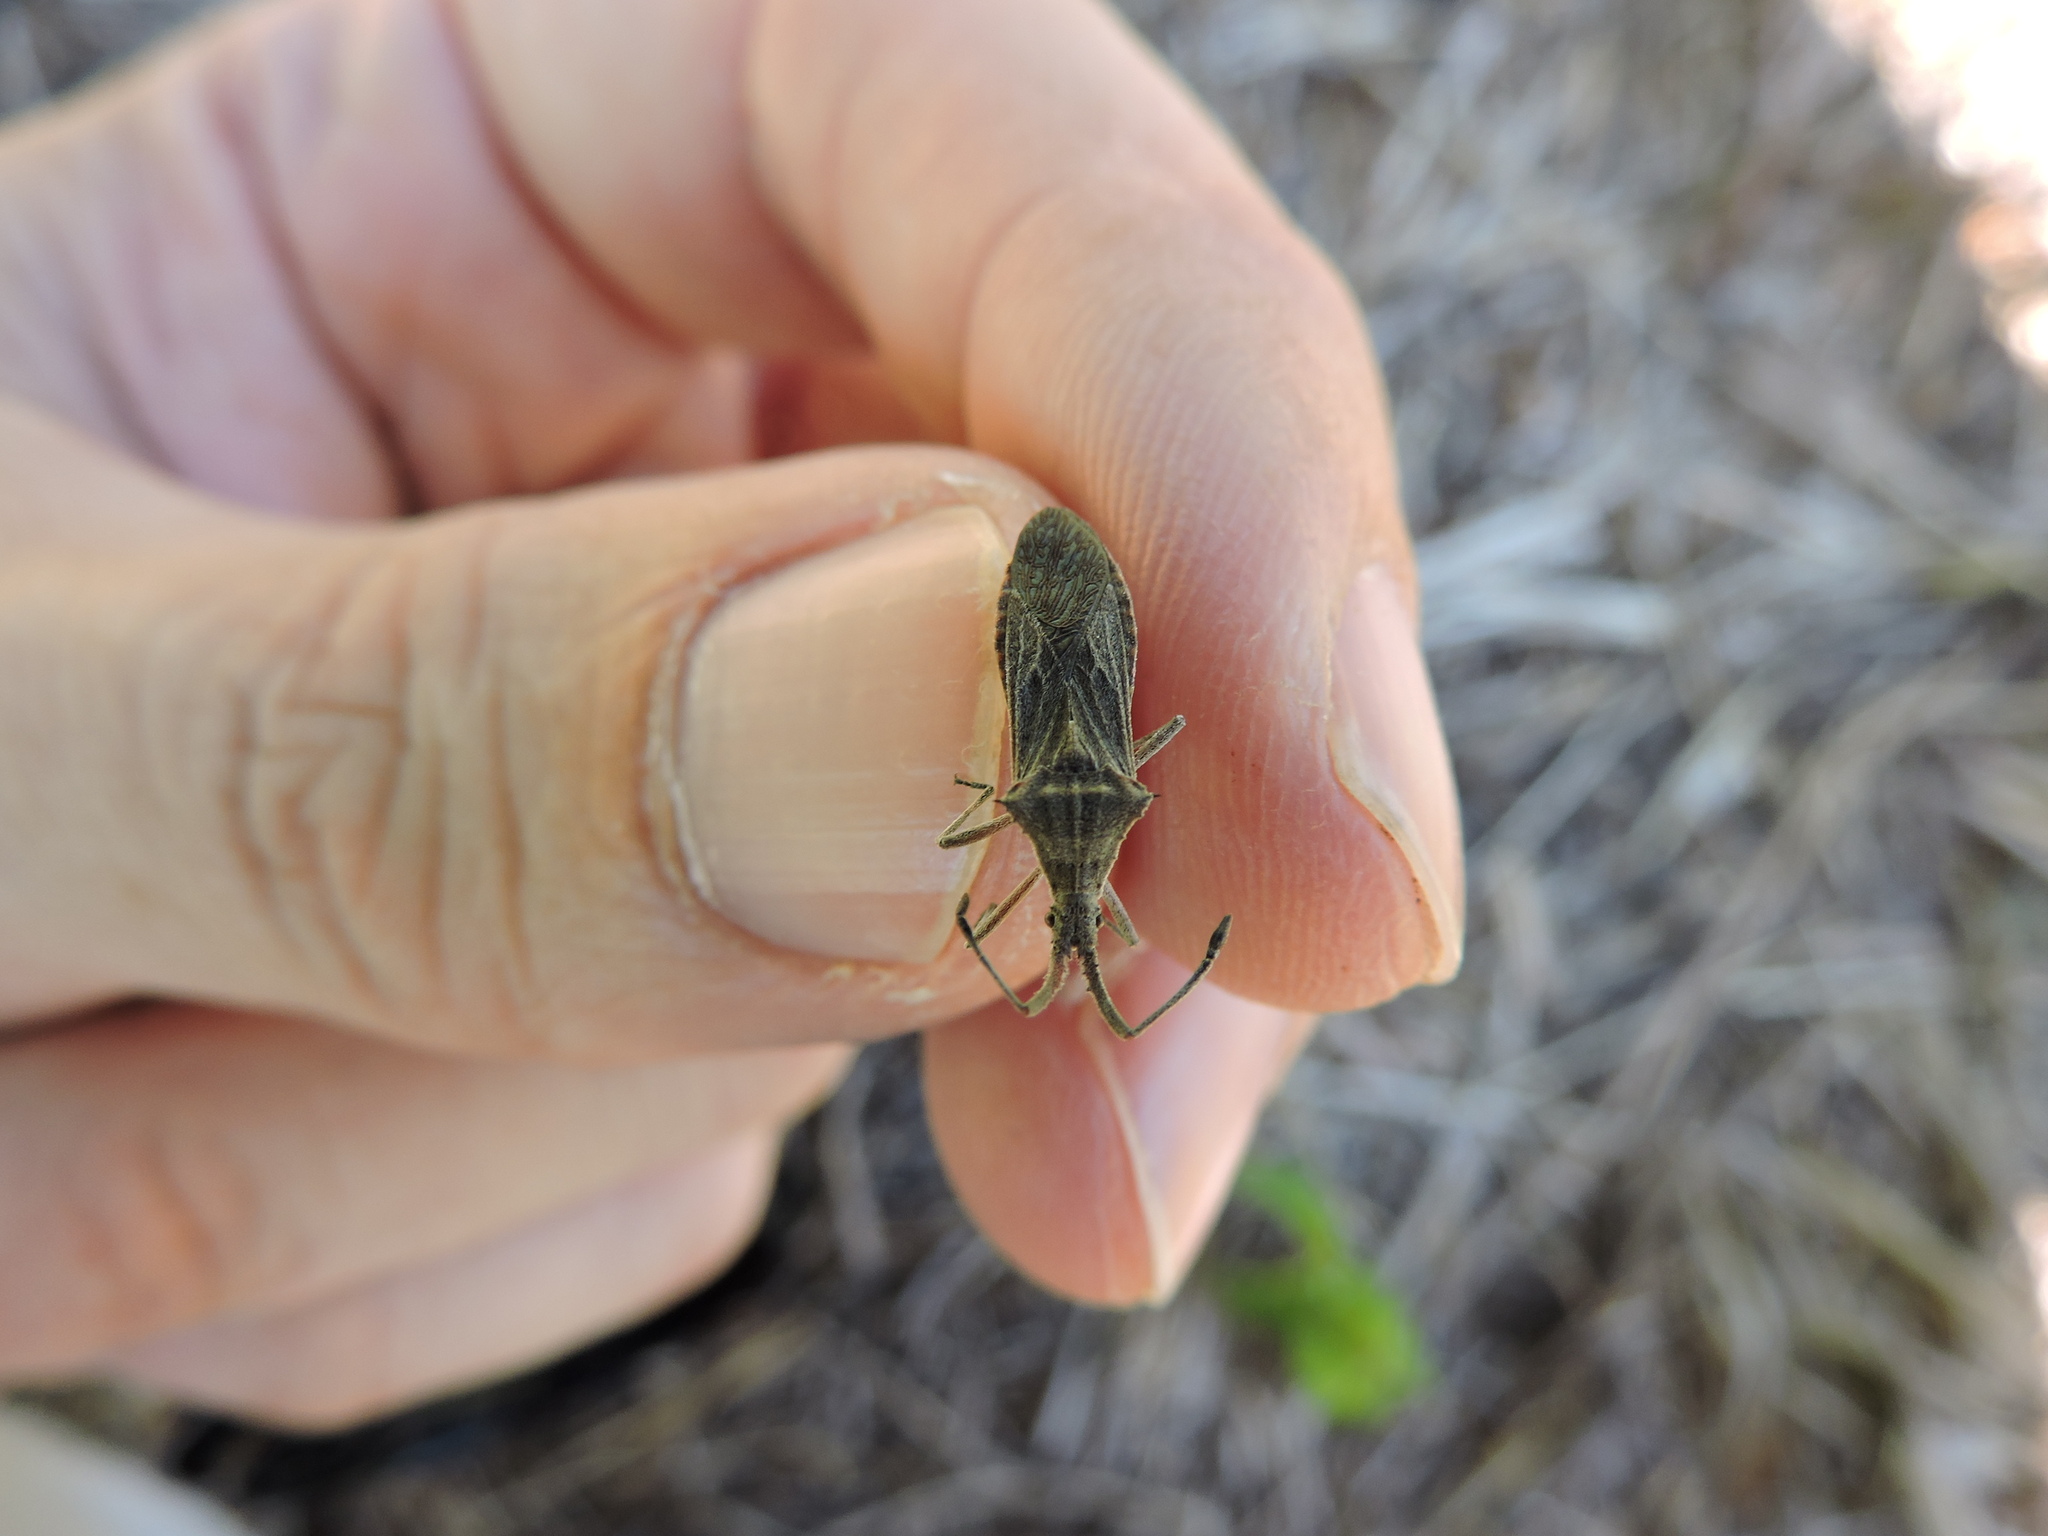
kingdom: Animalia
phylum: Arthropoda
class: Insecta
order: Hemiptera
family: Coreidae
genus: Chariesterus
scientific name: Chariesterus antennator
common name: Flat horned coreid
